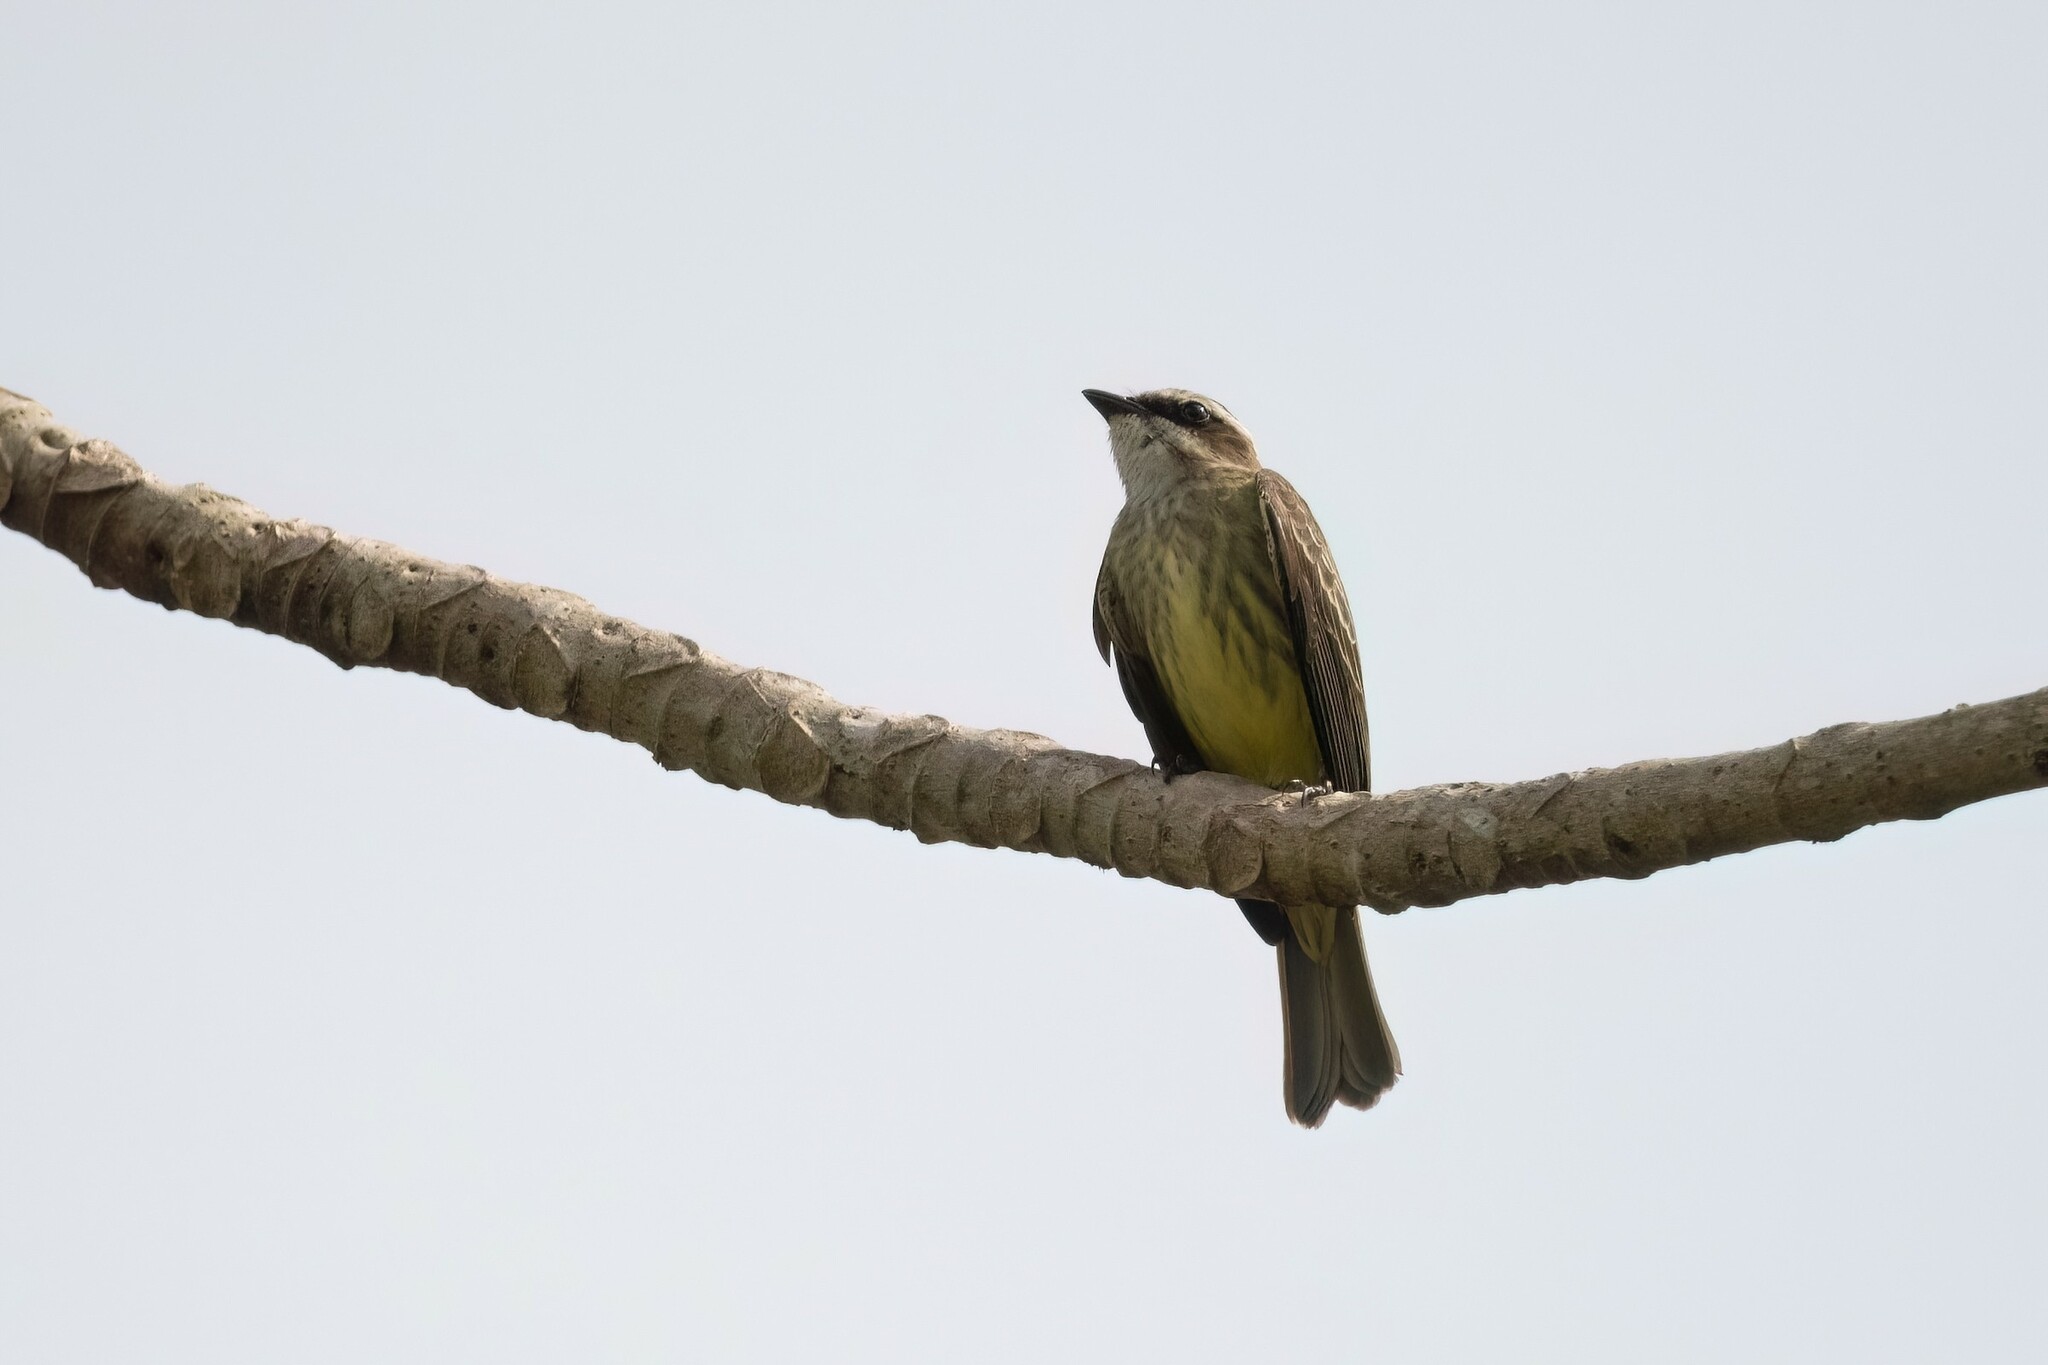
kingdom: Animalia
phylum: Chordata
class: Aves
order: Passeriformes
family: Tyrannidae
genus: Legatus
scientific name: Legatus leucophaius
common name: Piratic flycatcher
